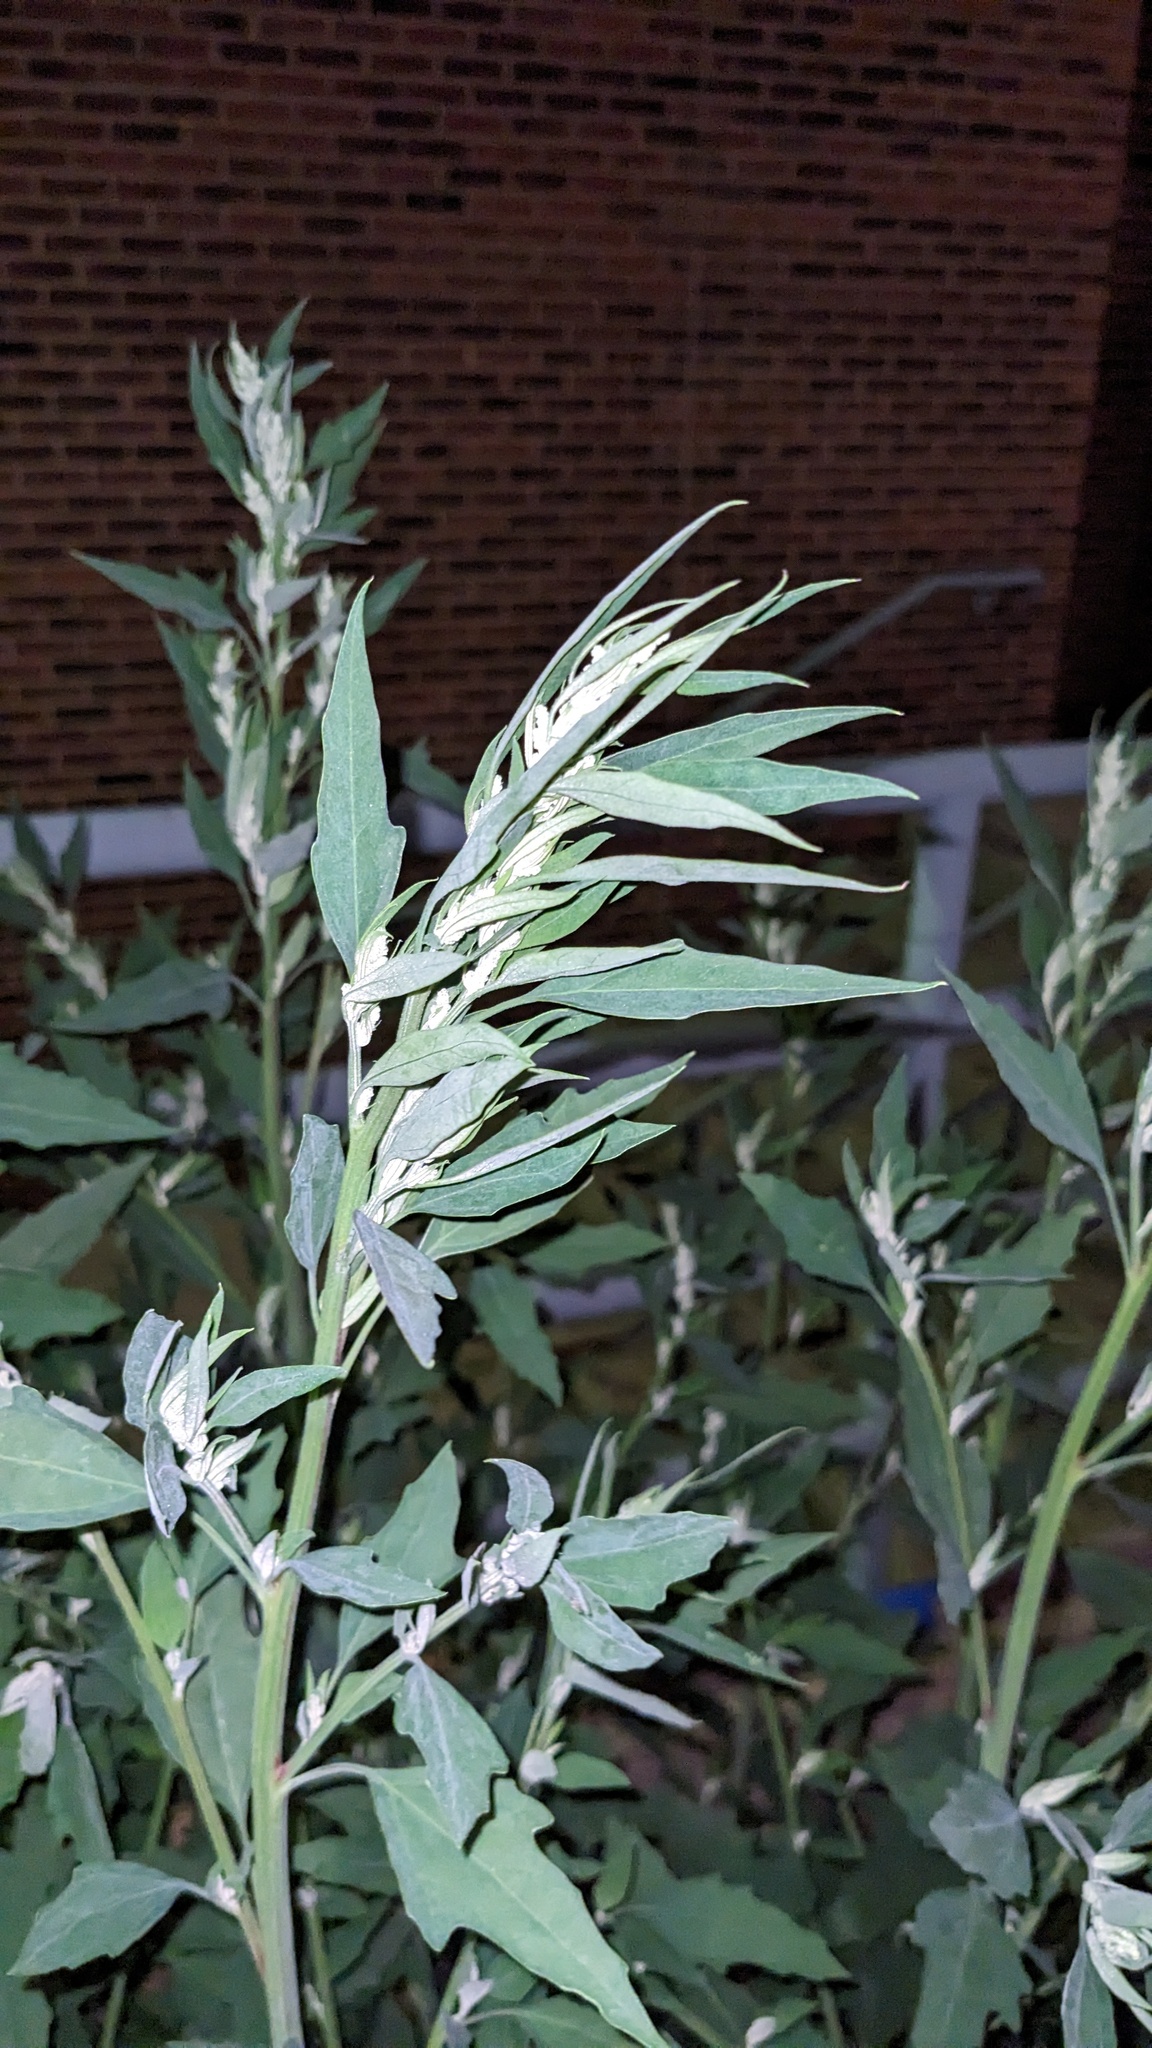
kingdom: Plantae
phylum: Tracheophyta
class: Magnoliopsida
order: Caryophyllales
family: Amaranthaceae
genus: Chenopodium
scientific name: Chenopodium
